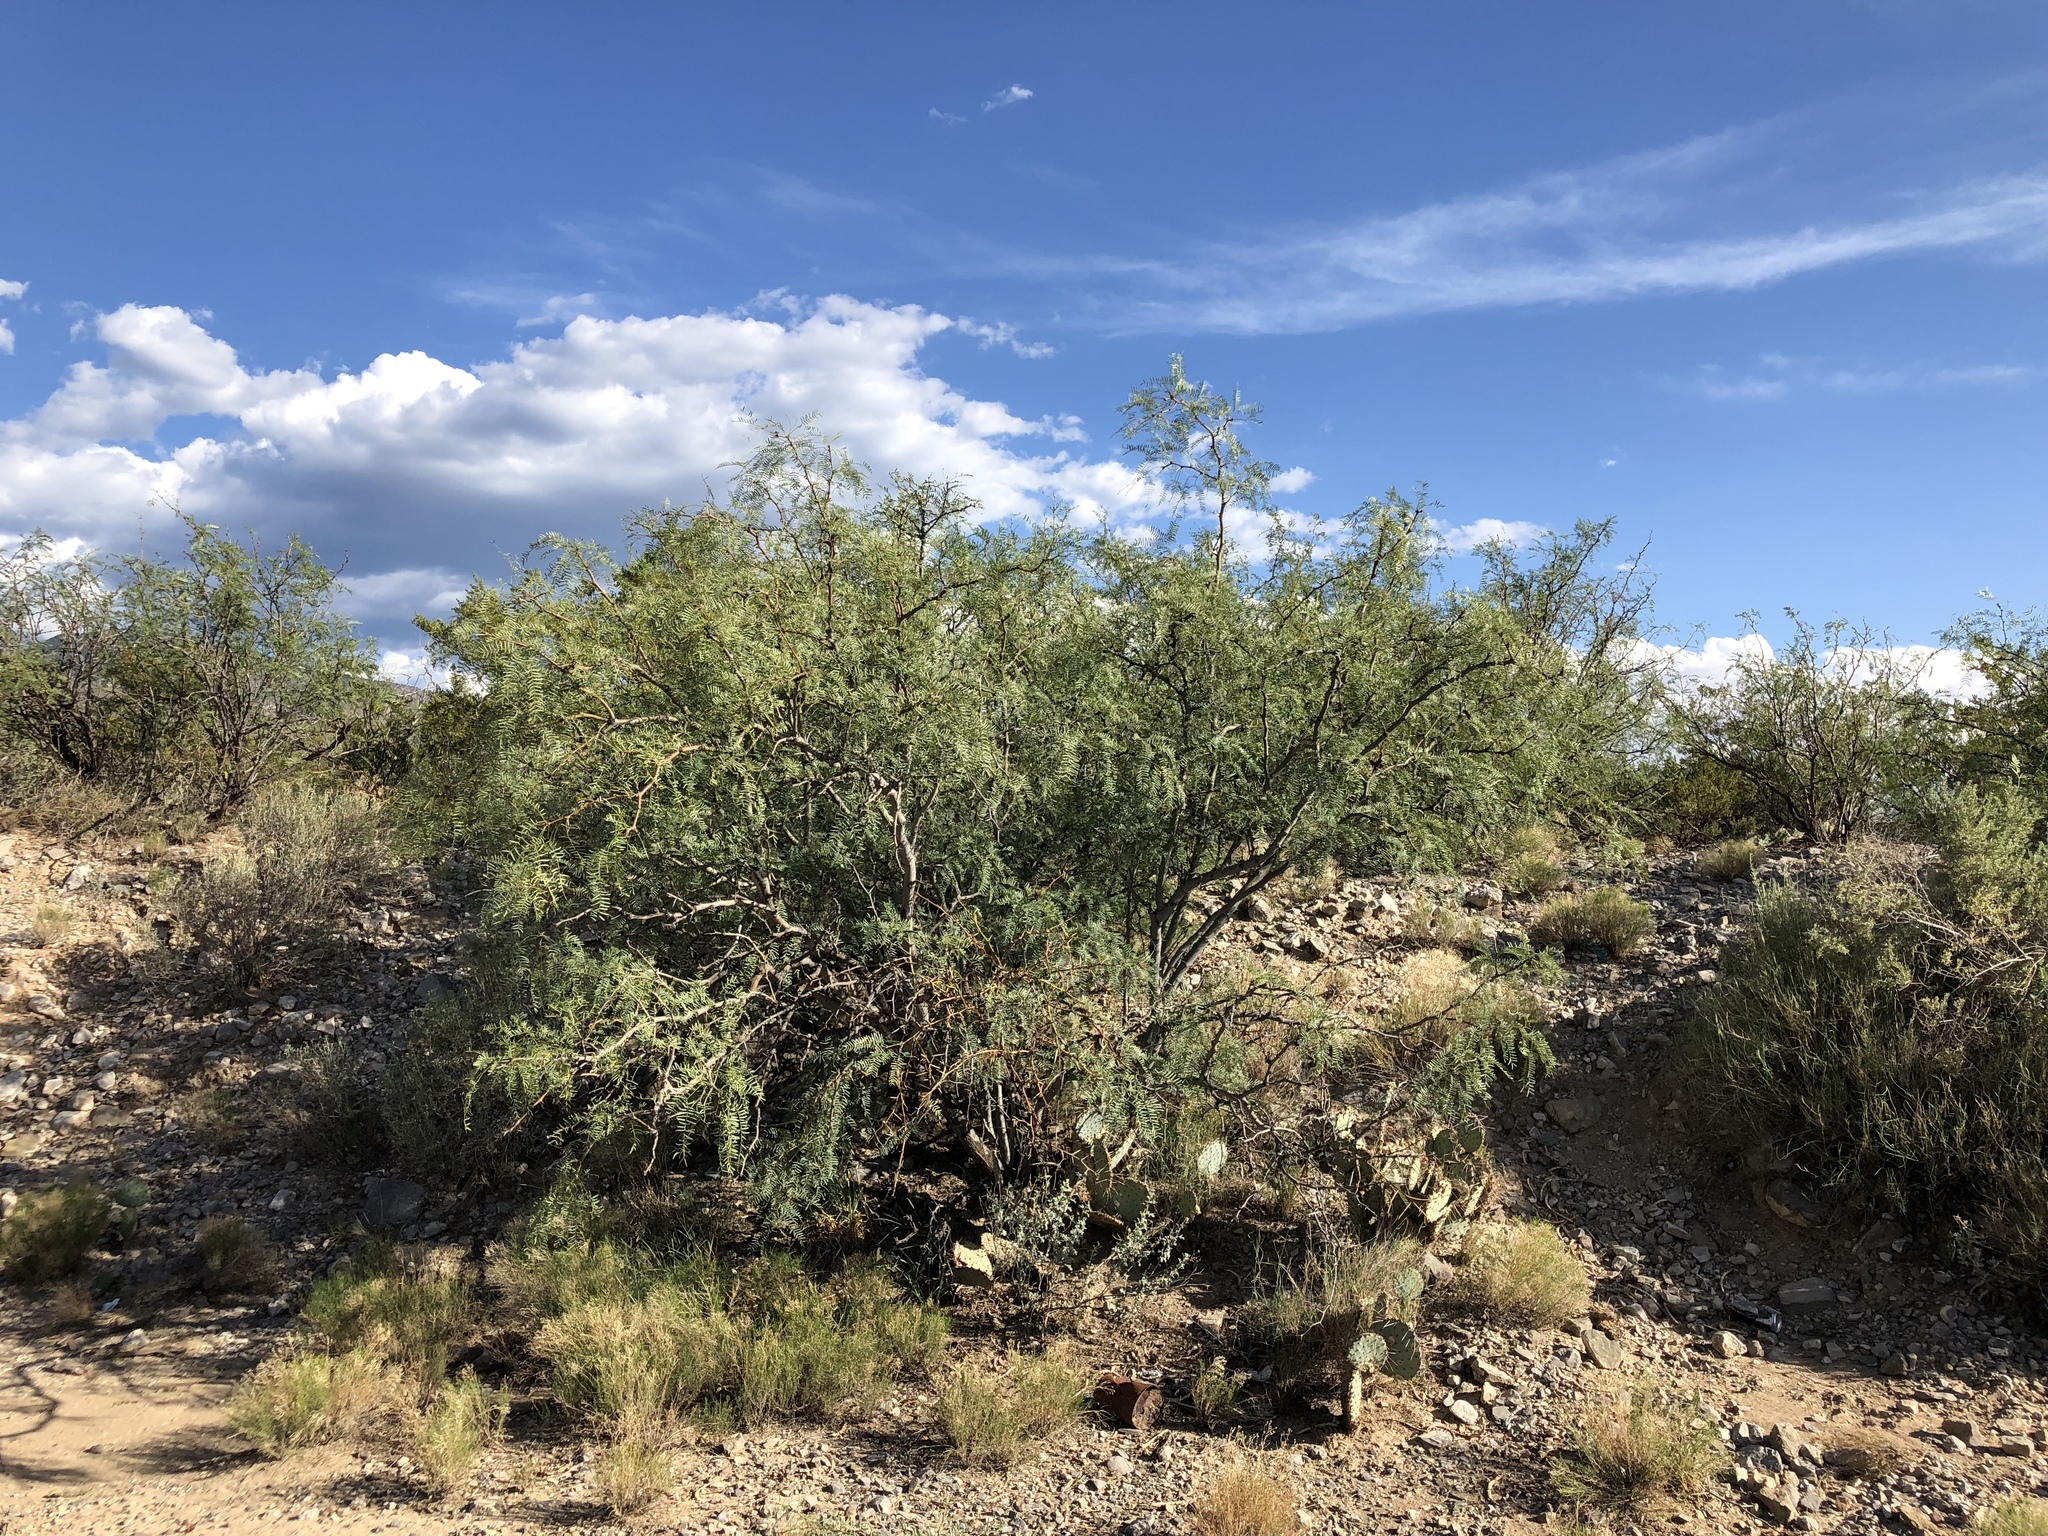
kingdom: Plantae
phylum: Tracheophyta
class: Magnoliopsida
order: Fabales
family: Fabaceae
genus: Prosopis
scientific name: Prosopis glandulosa
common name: Honey mesquite
